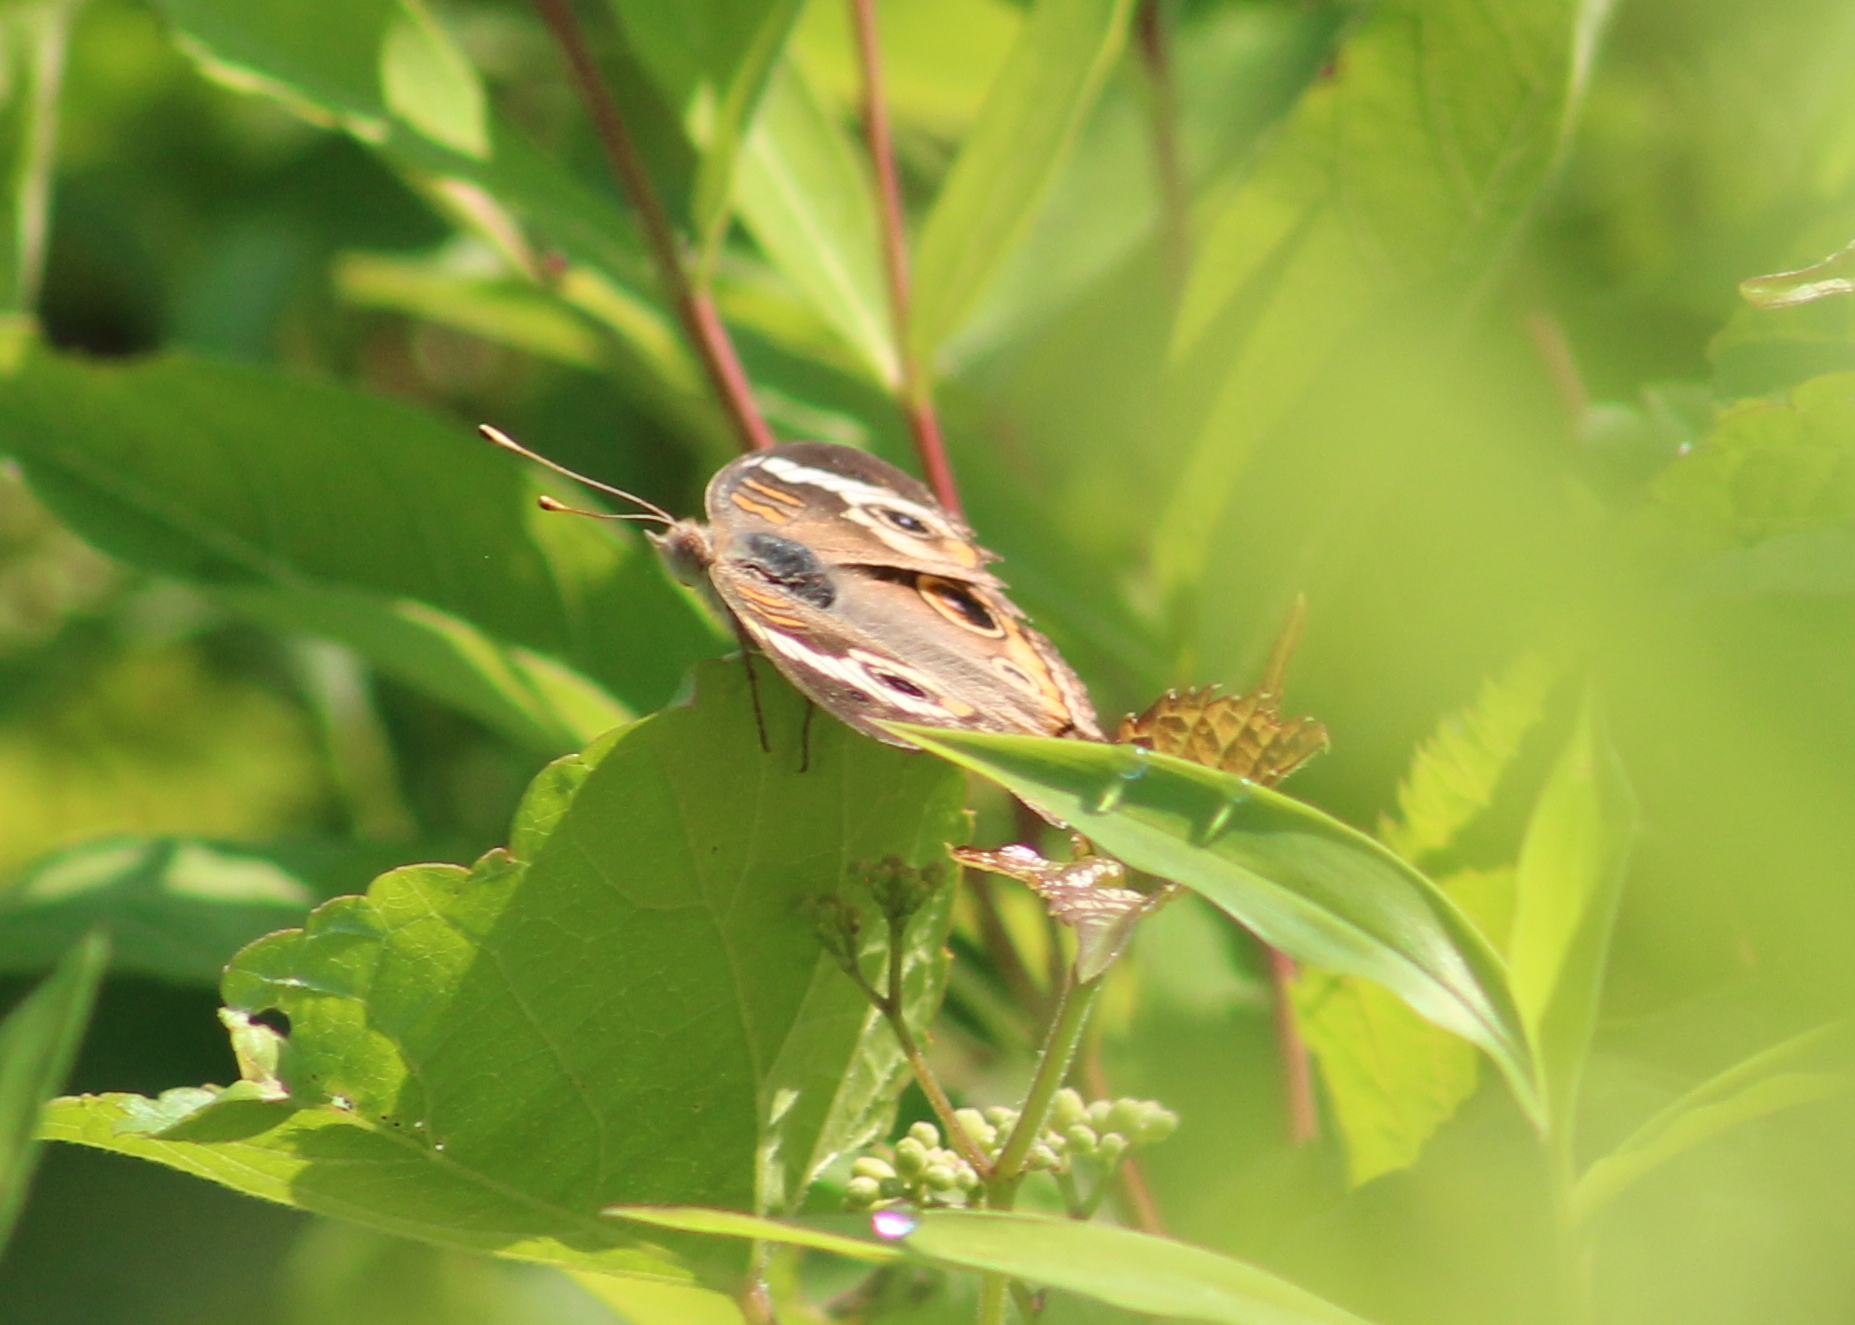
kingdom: Animalia
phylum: Arthropoda
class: Insecta
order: Lepidoptera
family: Nymphalidae
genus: Junonia
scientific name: Junonia coenia
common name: Common buckeye
